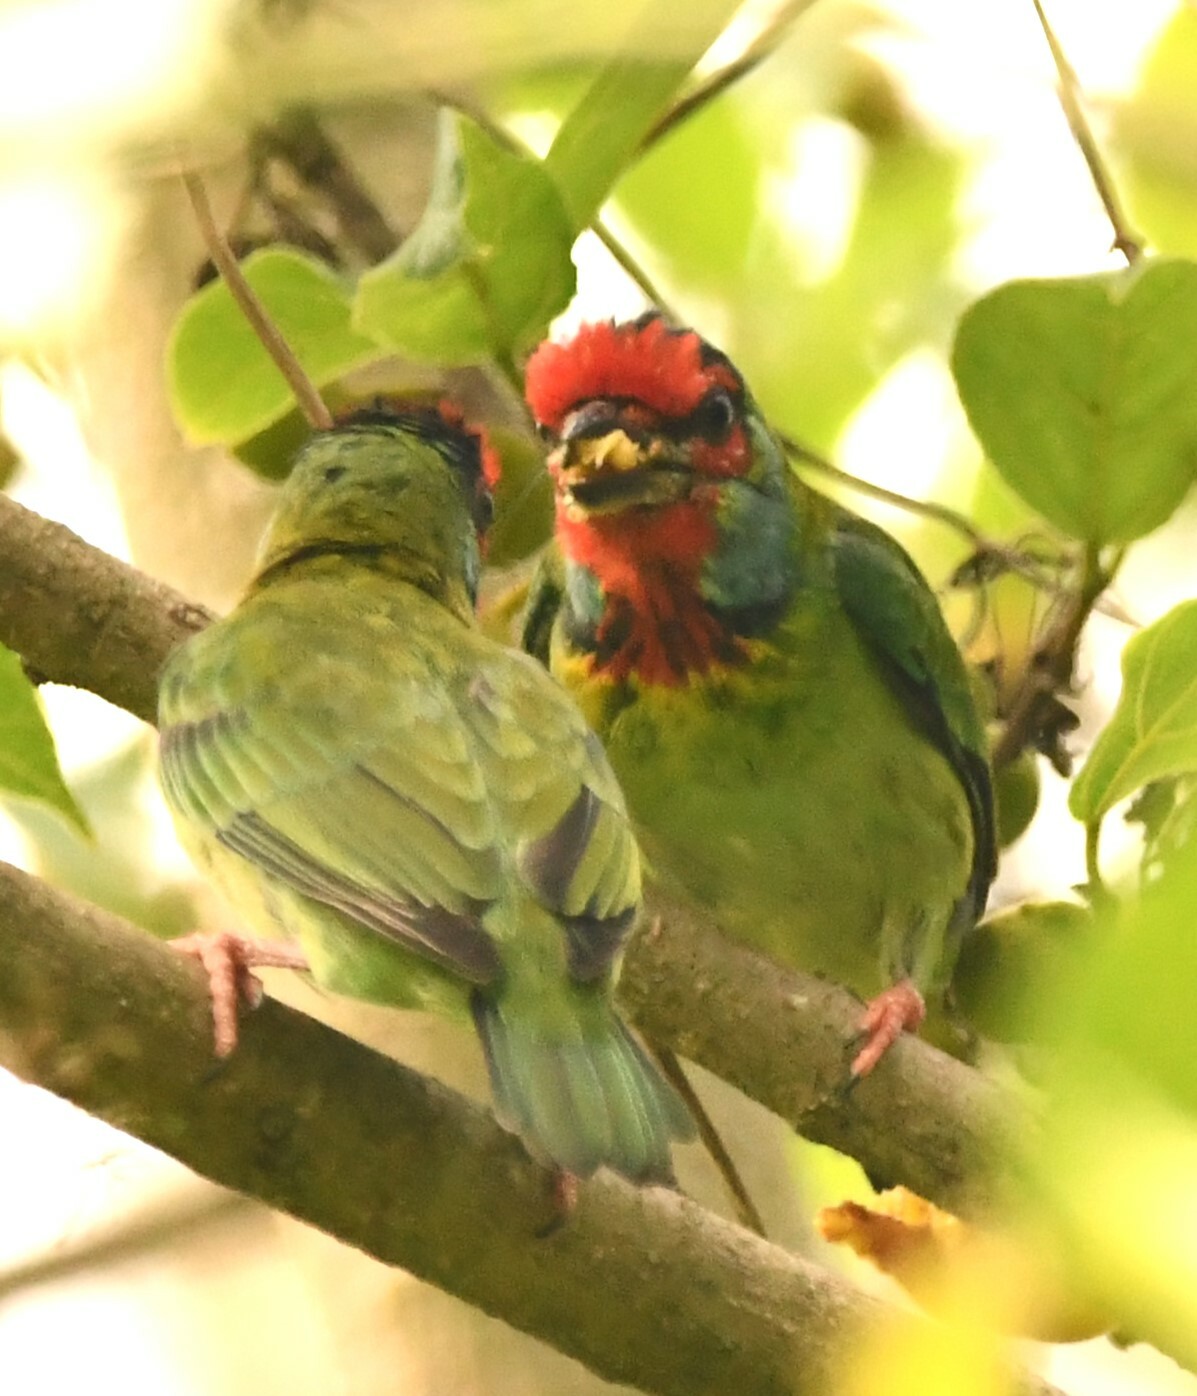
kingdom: Animalia
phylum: Chordata
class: Aves
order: Piciformes
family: Megalaimidae
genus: Psilopogon
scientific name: Psilopogon malabaricus
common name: Malabar barbet
